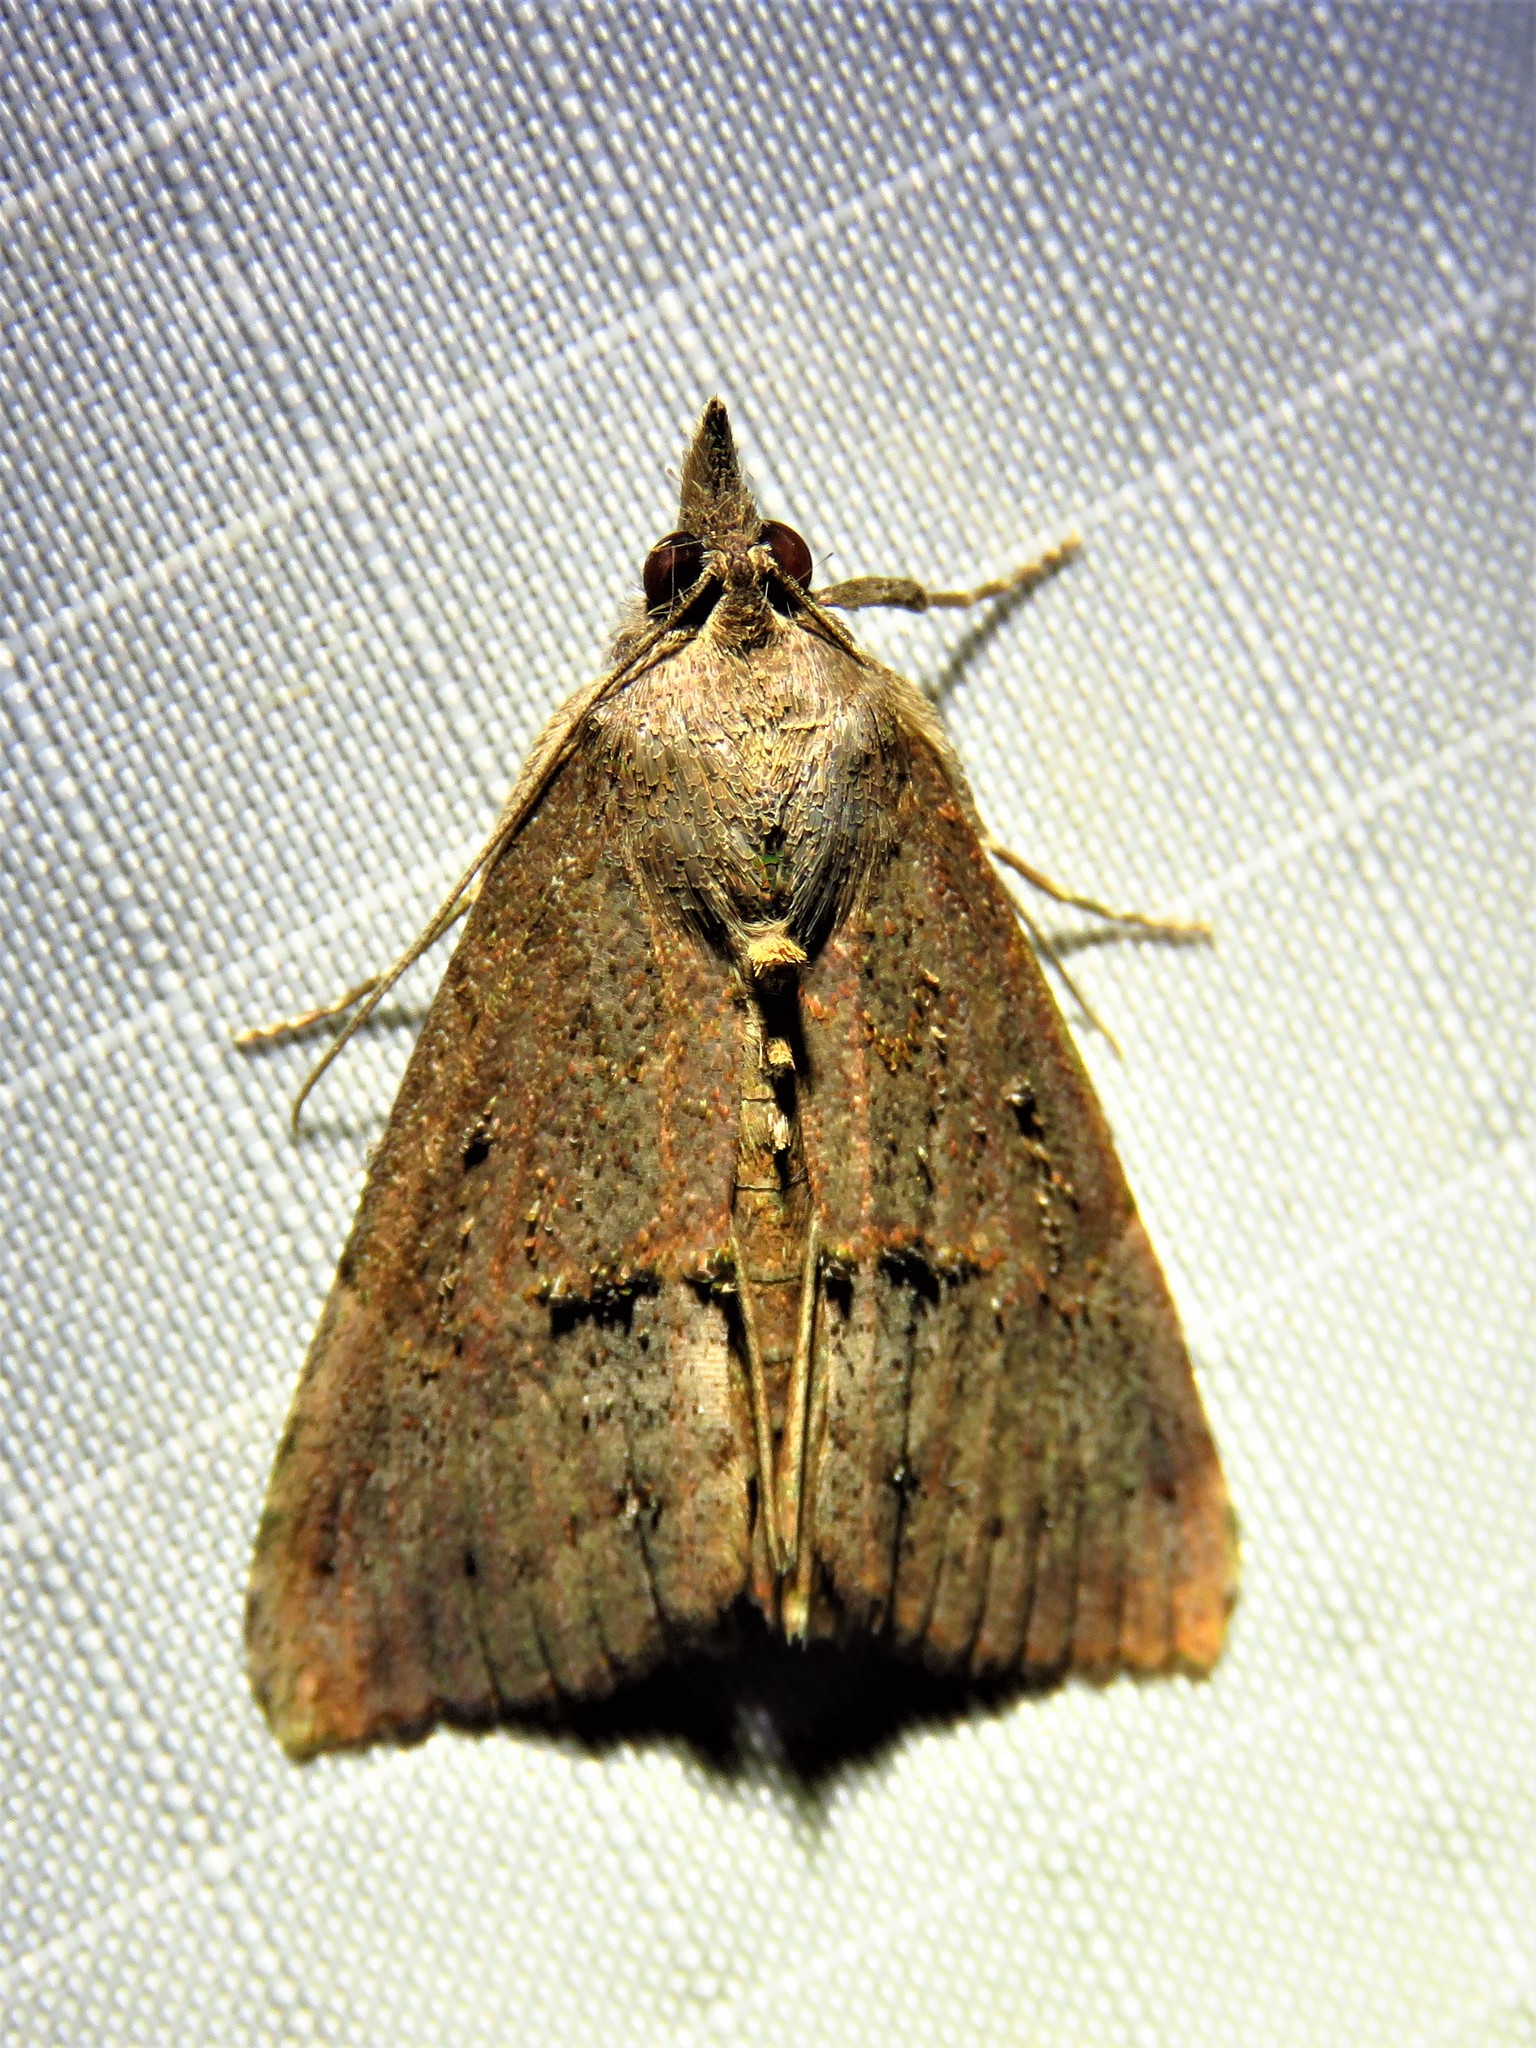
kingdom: Animalia
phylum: Arthropoda
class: Insecta
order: Lepidoptera
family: Erebidae
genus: Hypena
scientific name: Hypena scabra
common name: Green cloverworm
